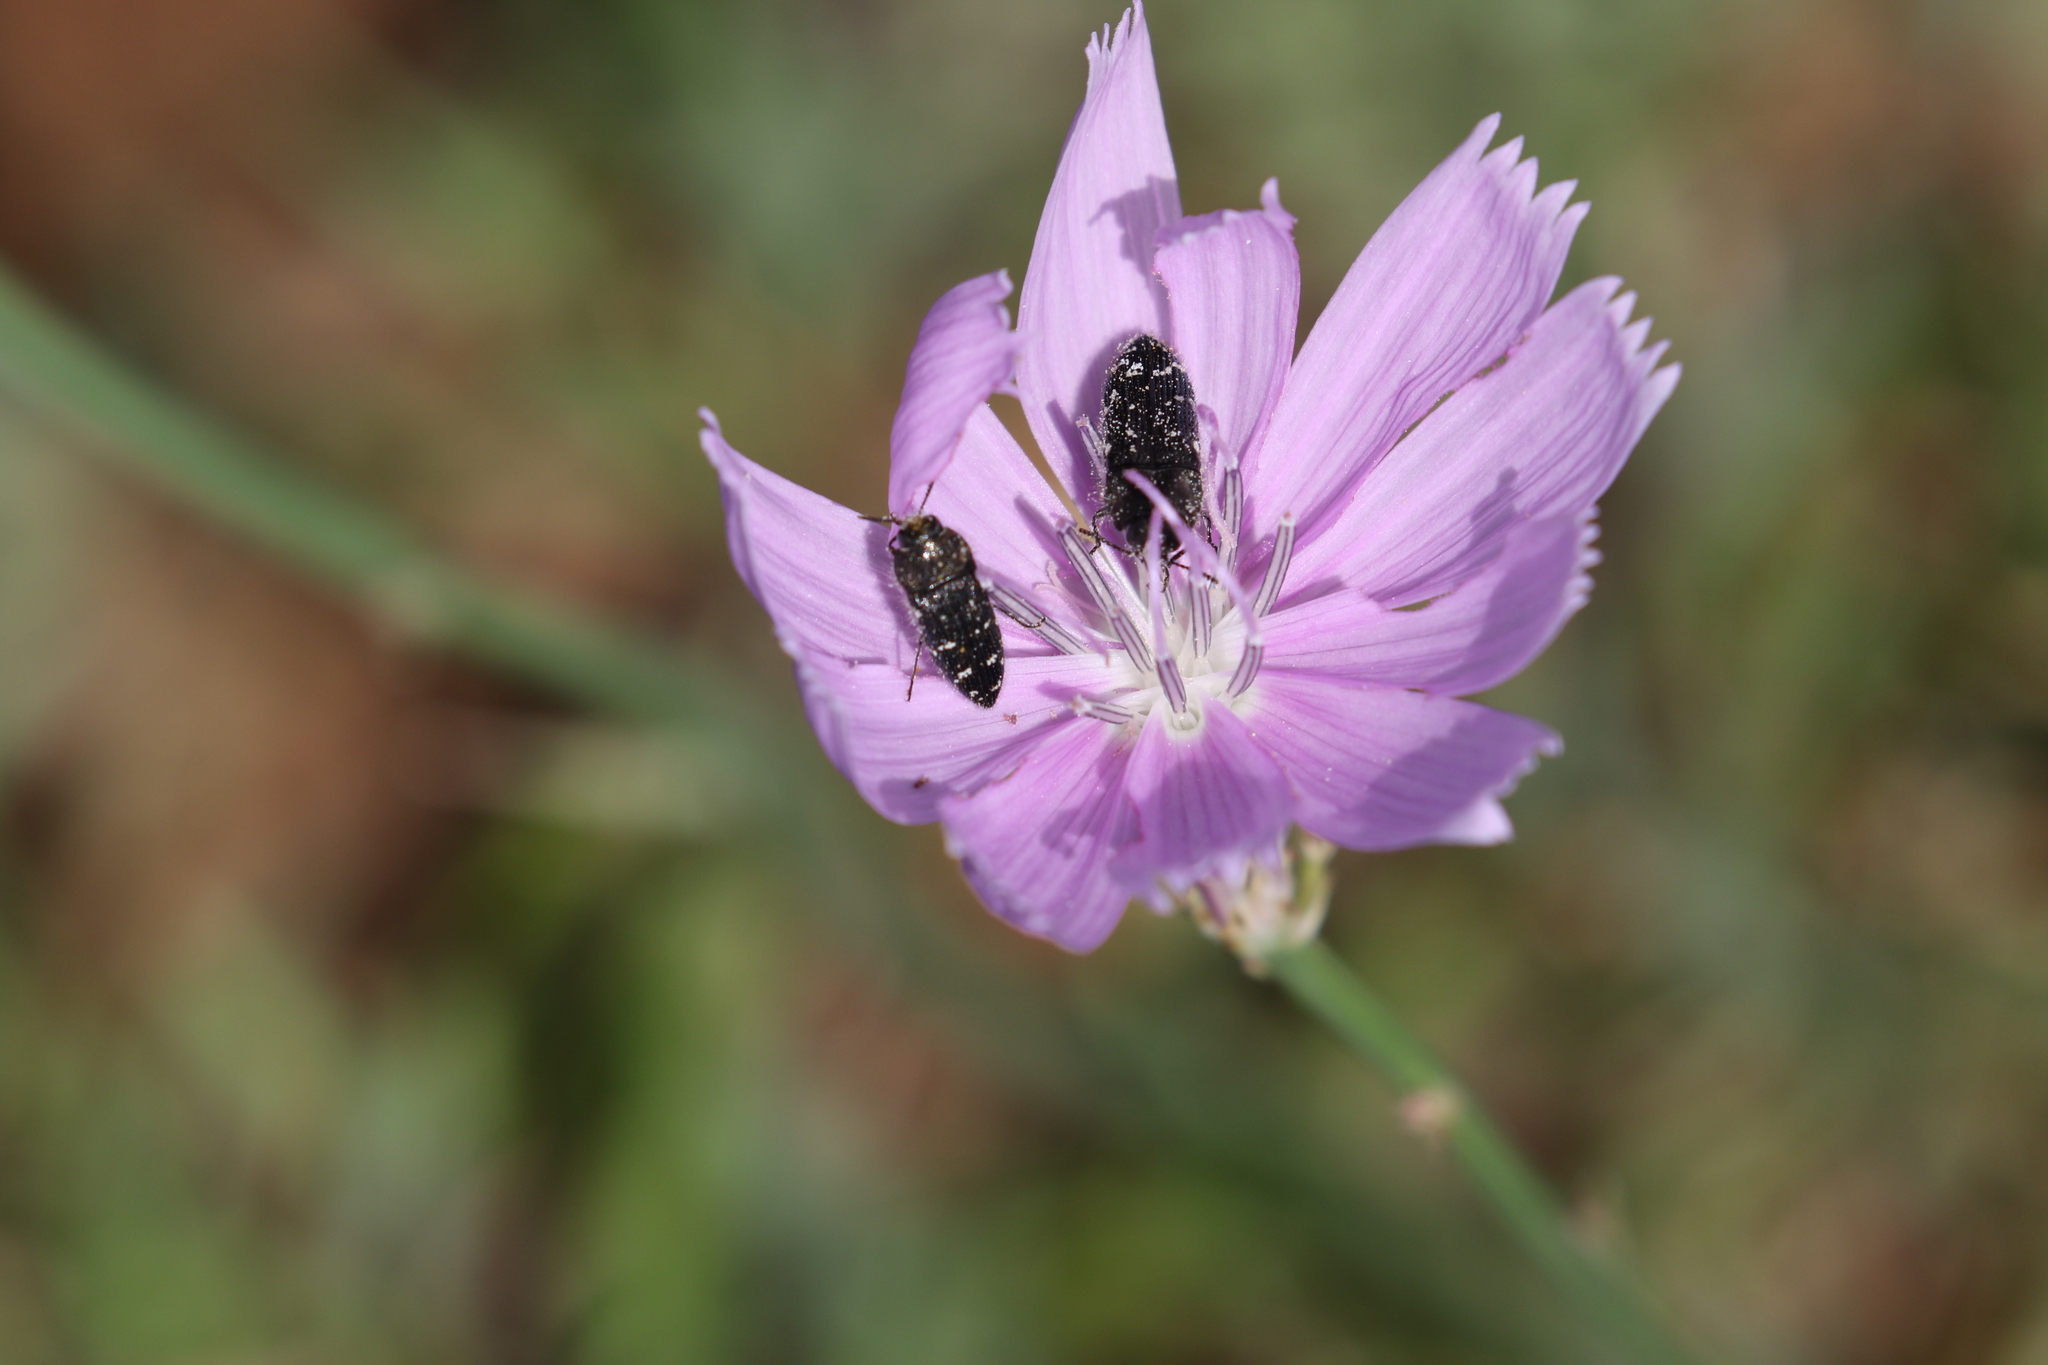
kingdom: Animalia
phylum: Arthropoda
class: Insecta
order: Coleoptera
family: Buprestidae
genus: Acmaeodera
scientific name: Acmaeodera ornatoides
